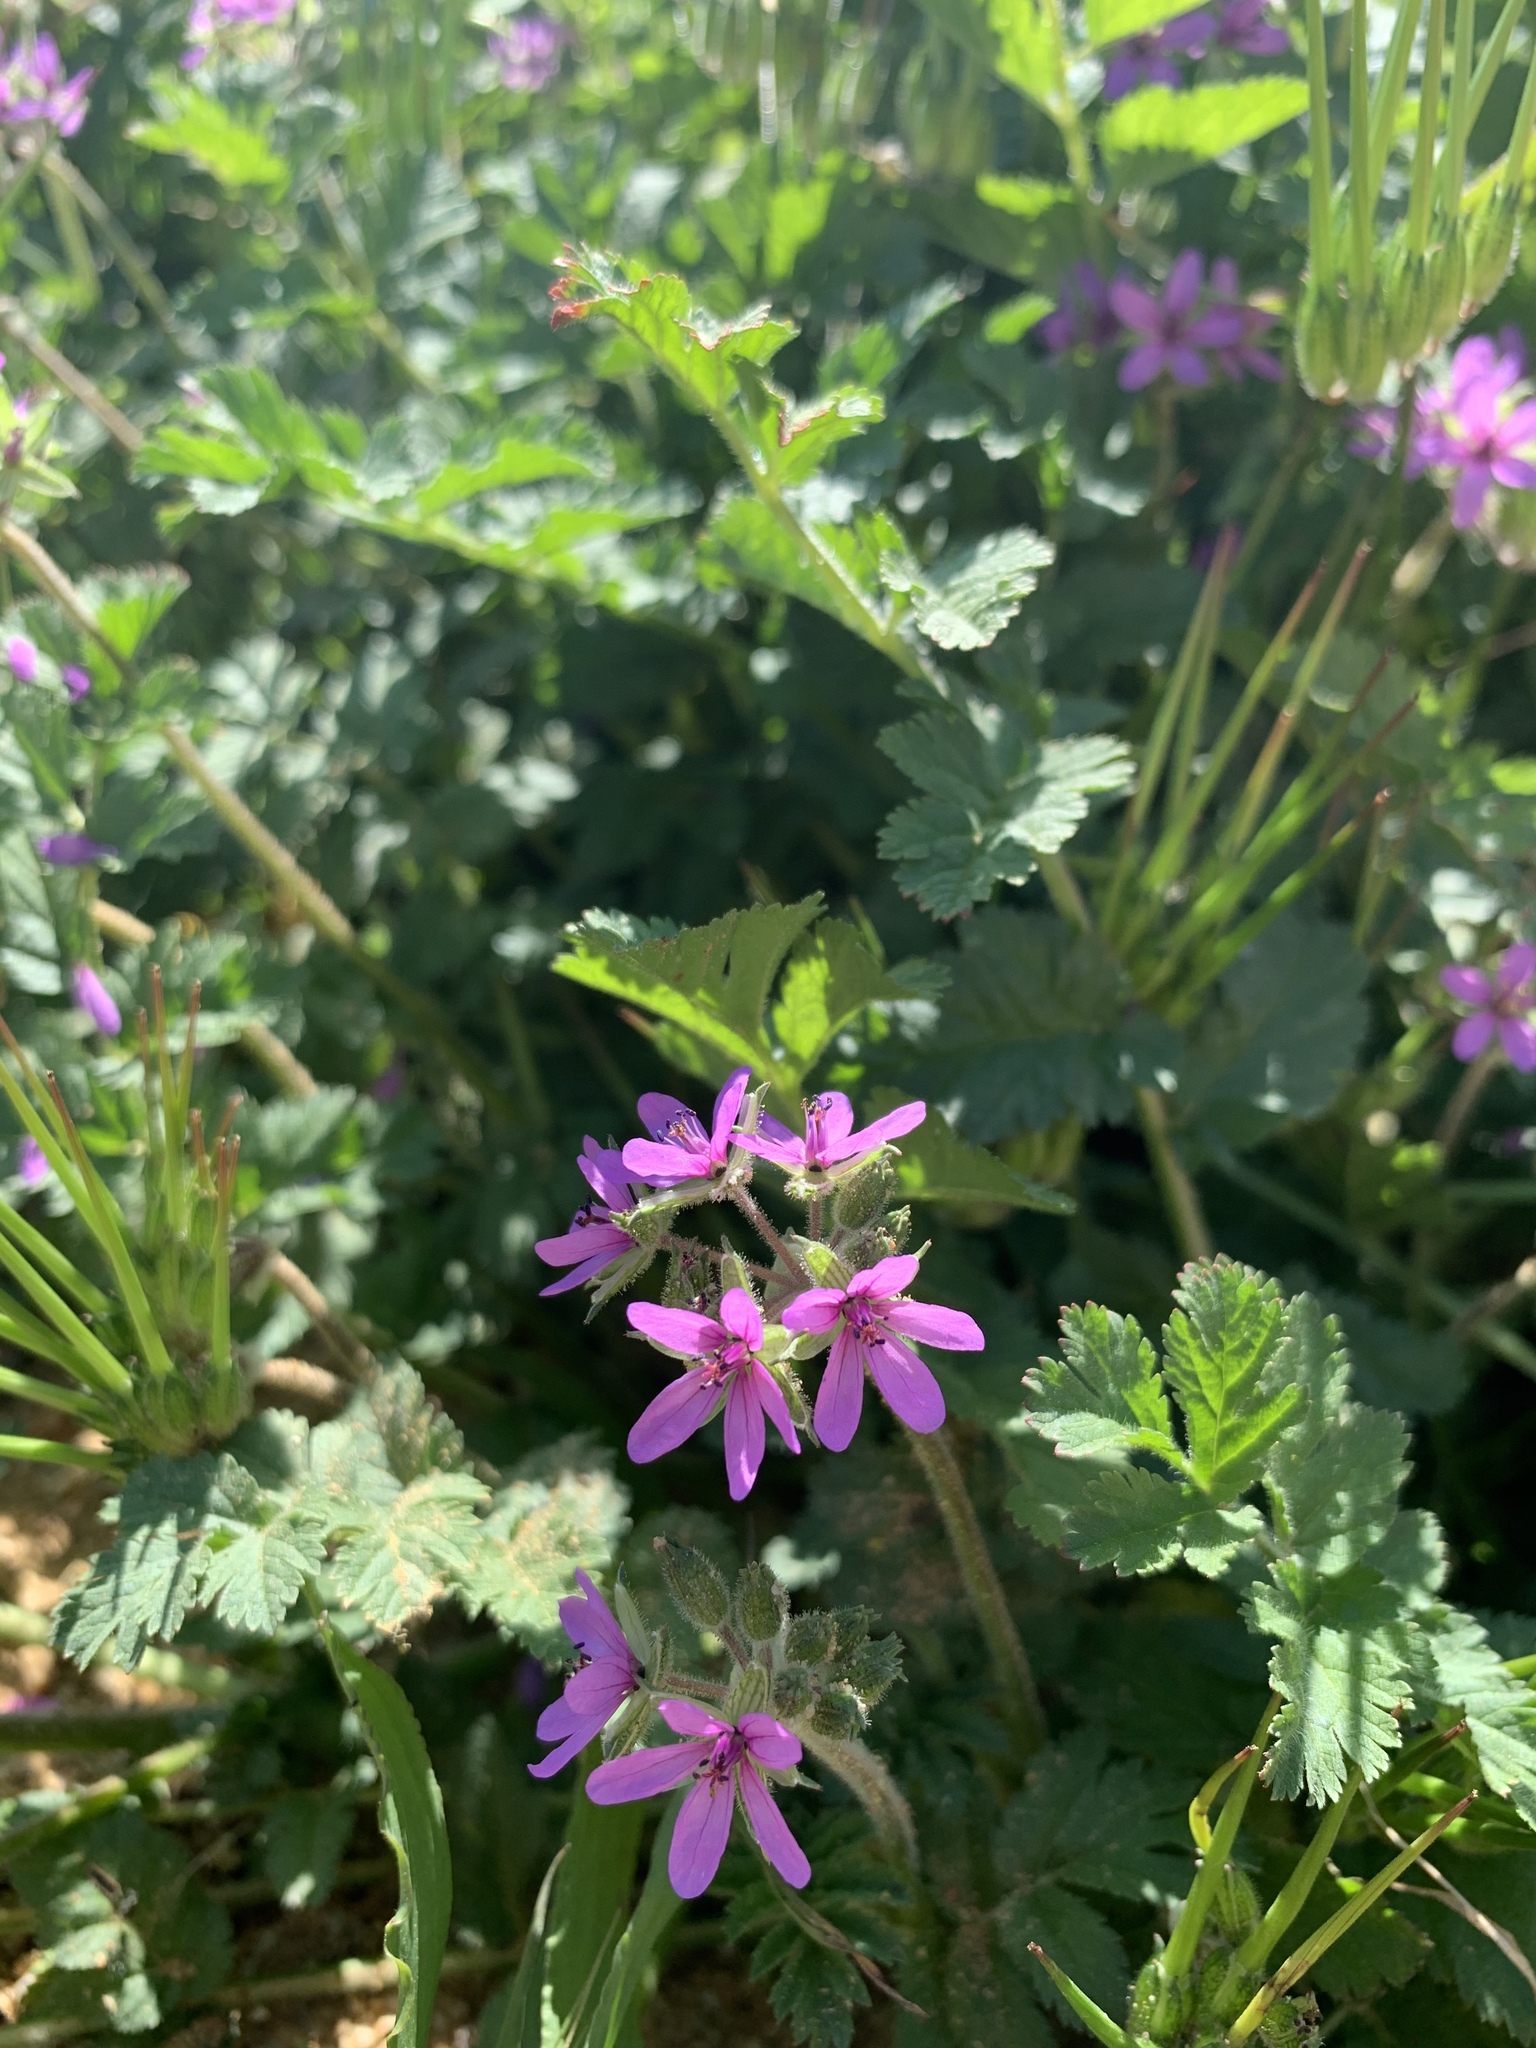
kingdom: Plantae
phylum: Tracheophyta
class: Magnoliopsida
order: Geraniales
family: Geraniaceae
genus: Erodium
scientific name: Erodium moschatum
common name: Musk stork's-bill
